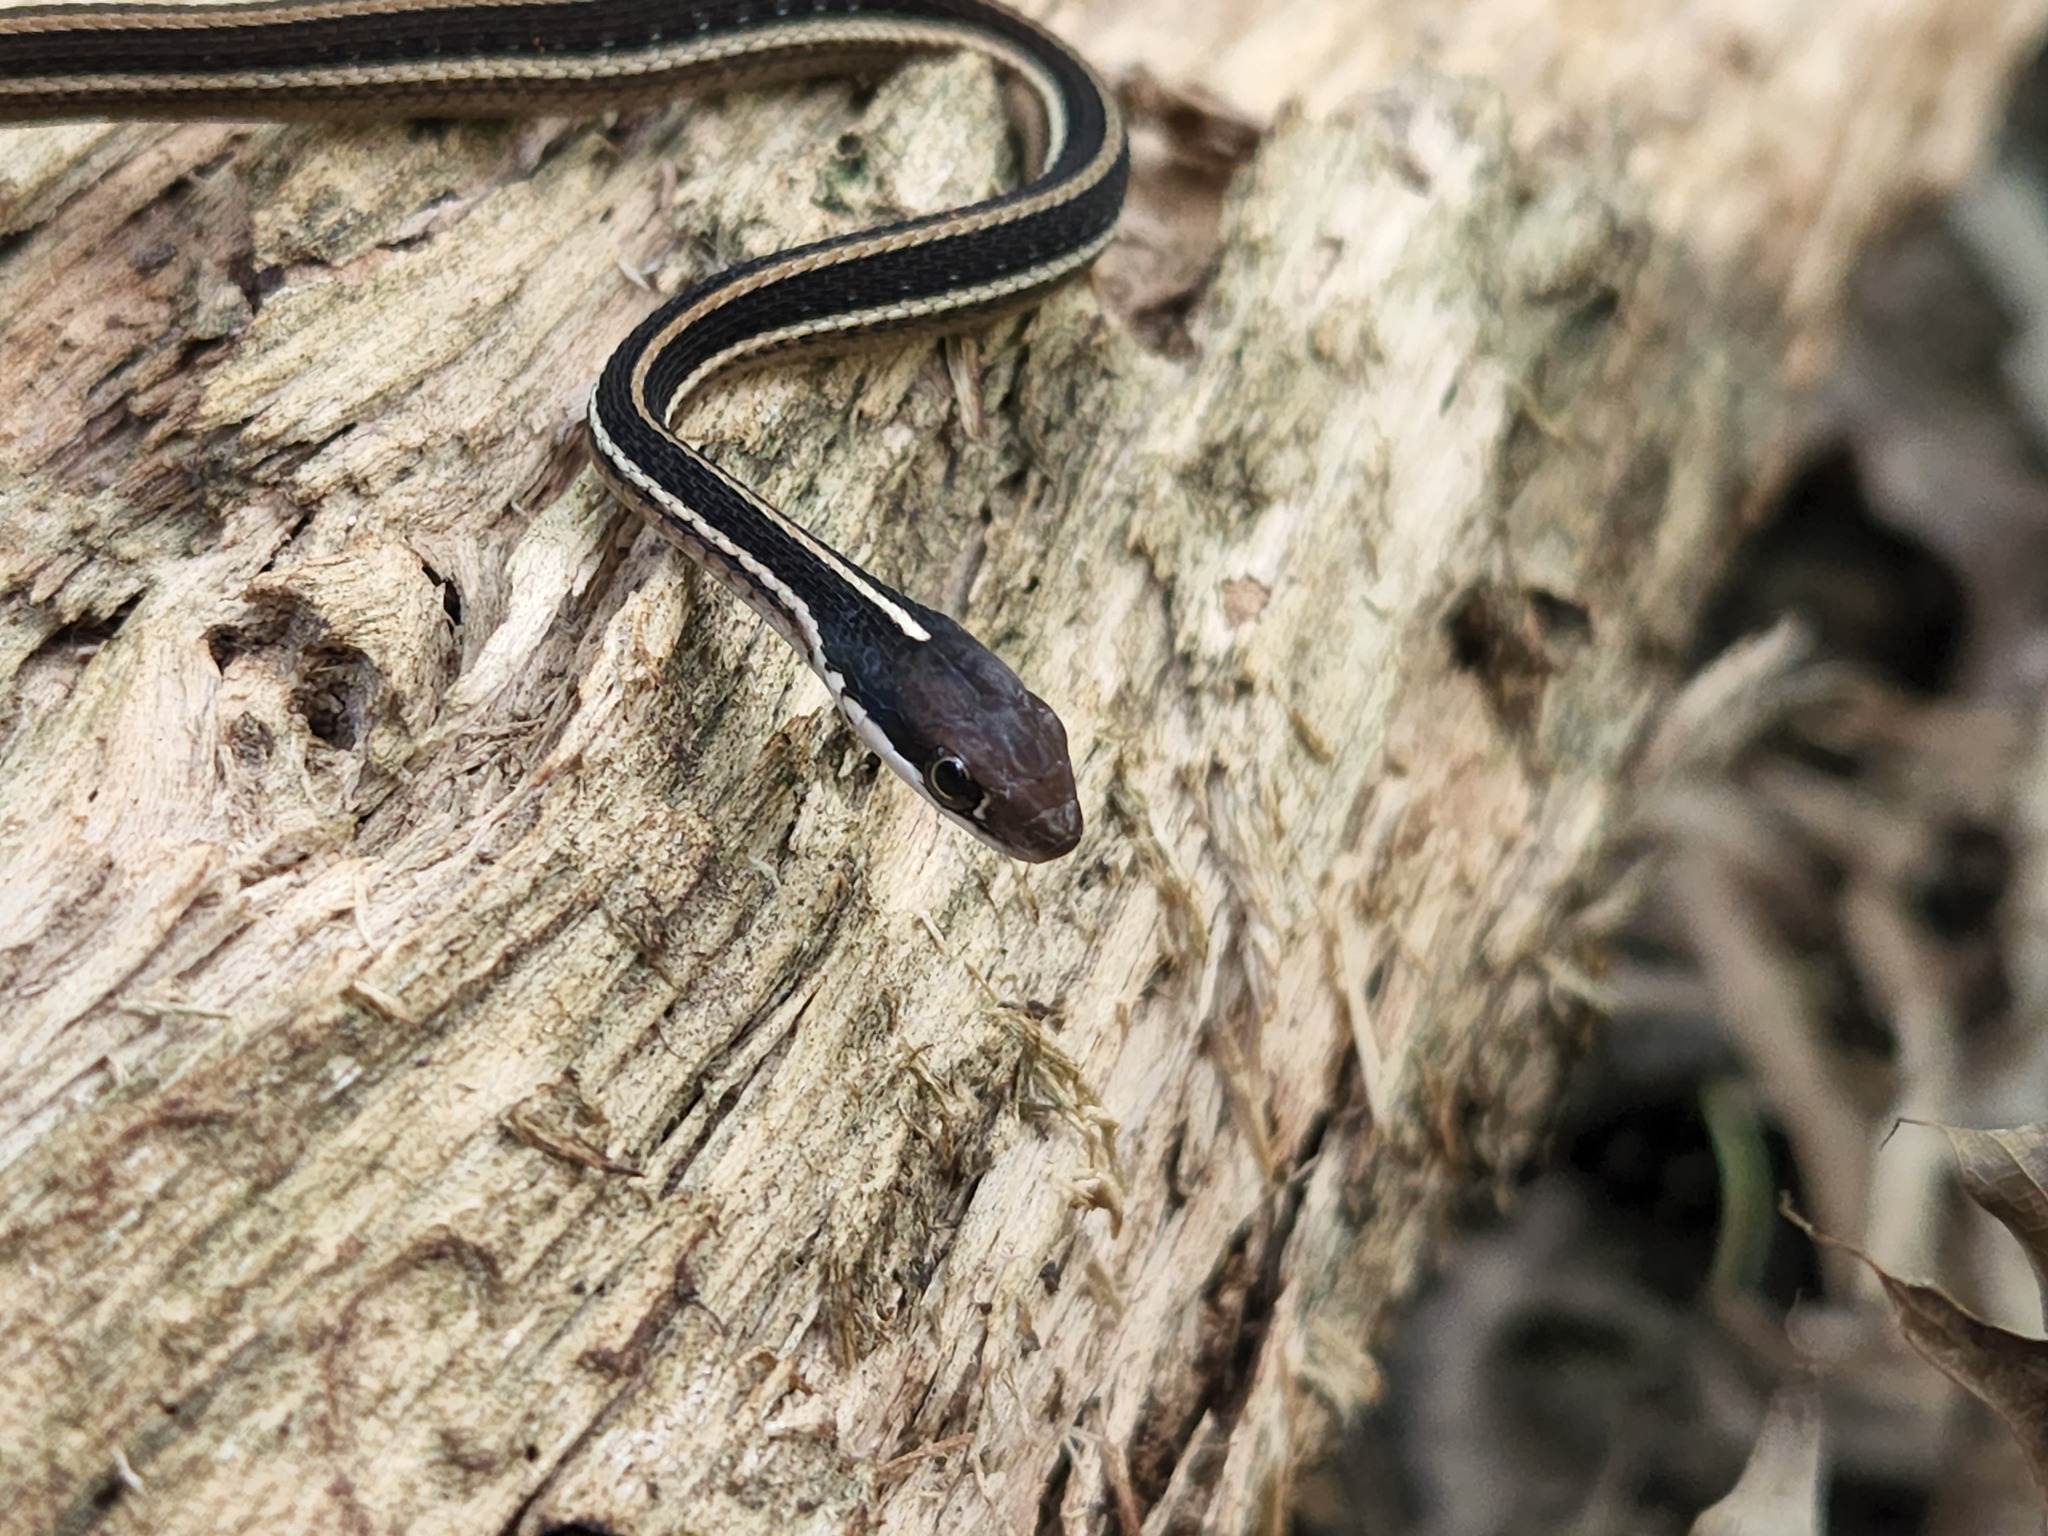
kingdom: Animalia
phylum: Chordata
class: Squamata
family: Colubridae
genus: Thamnophis
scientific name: Thamnophis saurita
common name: Eastern ribbonsnake
